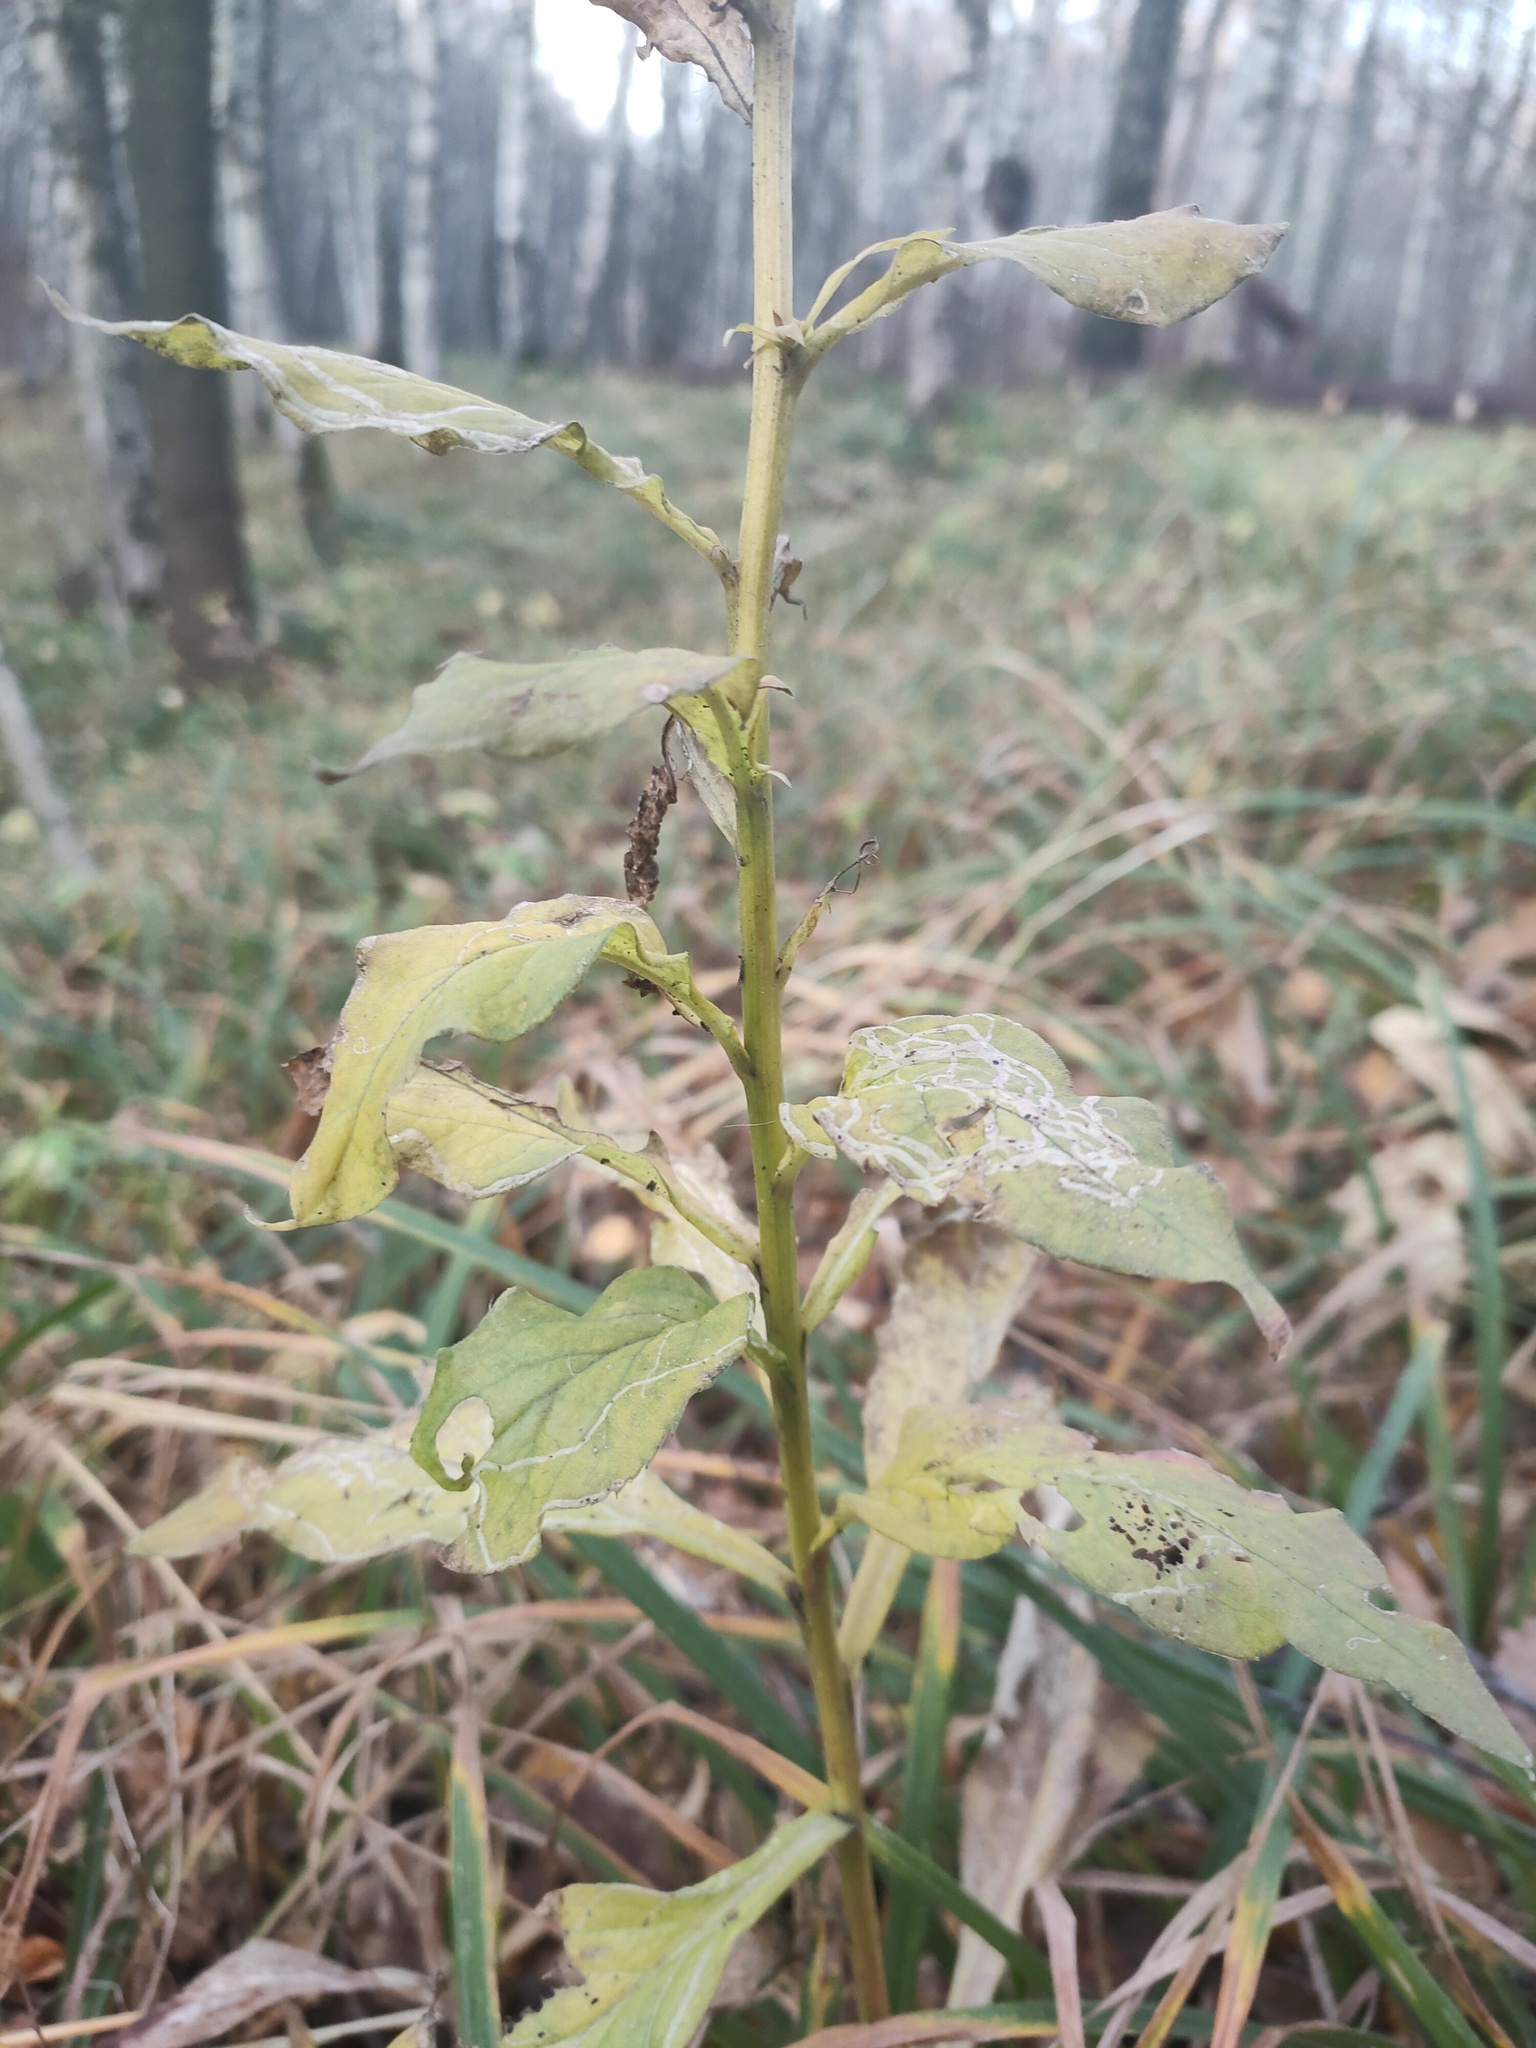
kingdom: Plantae
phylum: Tracheophyta
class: Magnoliopsida
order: Asterales
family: Asteraceae
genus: Solidago
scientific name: Solidago virgaurea
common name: Goldenrod
